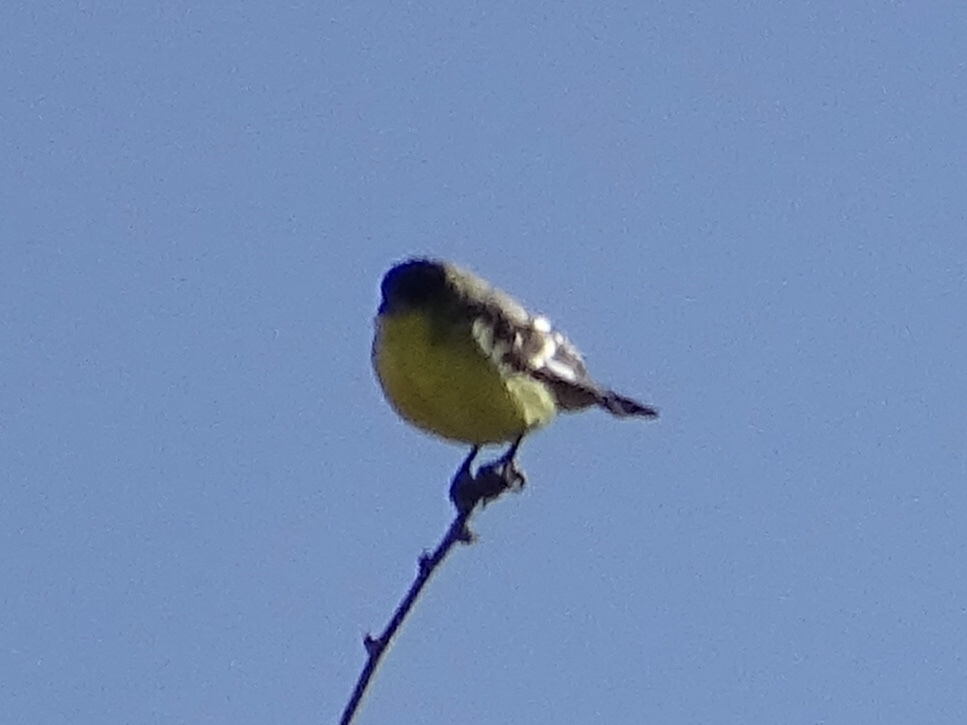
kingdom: Animalia
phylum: Chordata
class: Aves
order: Passeriformes
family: Fringillidae
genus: Spinus
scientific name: Spinus psaltria
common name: Lesser goldfinch
